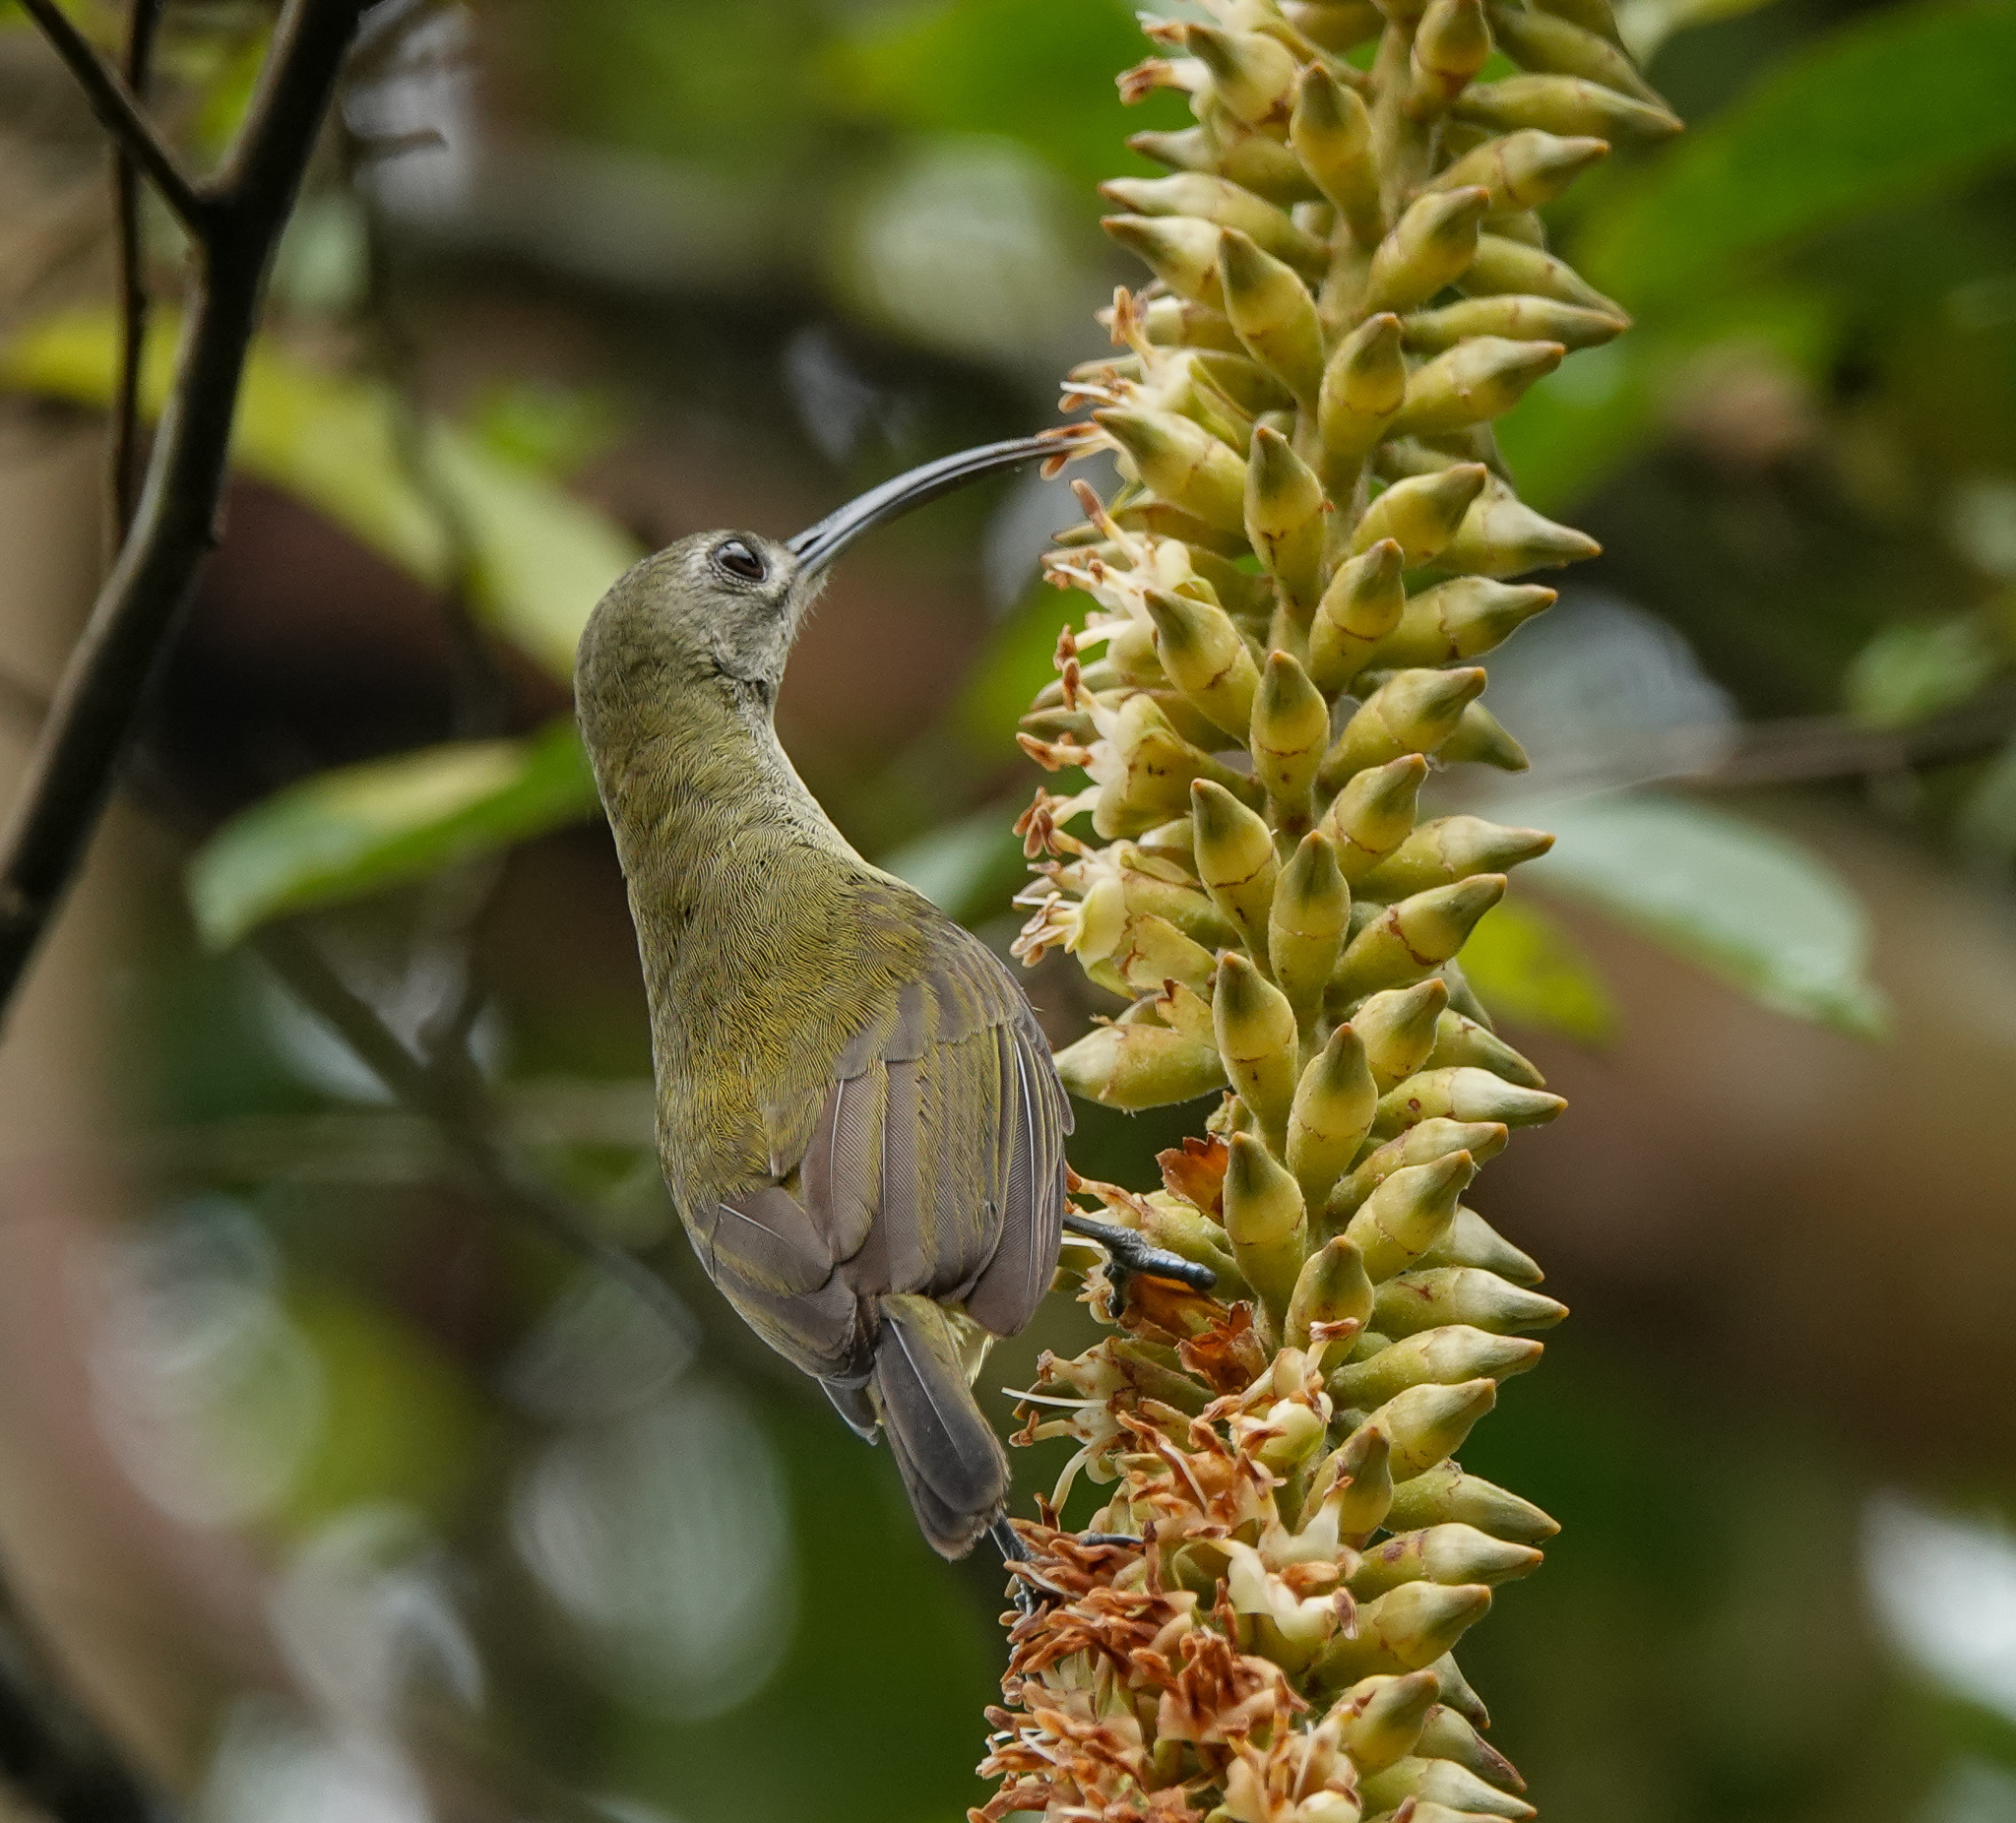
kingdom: Animalia
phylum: Chordata
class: Aves
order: Passeriformes
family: Nectariniidae
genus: Arachnothera
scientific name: Arachnothera longirostra
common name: Little spiderhunter
